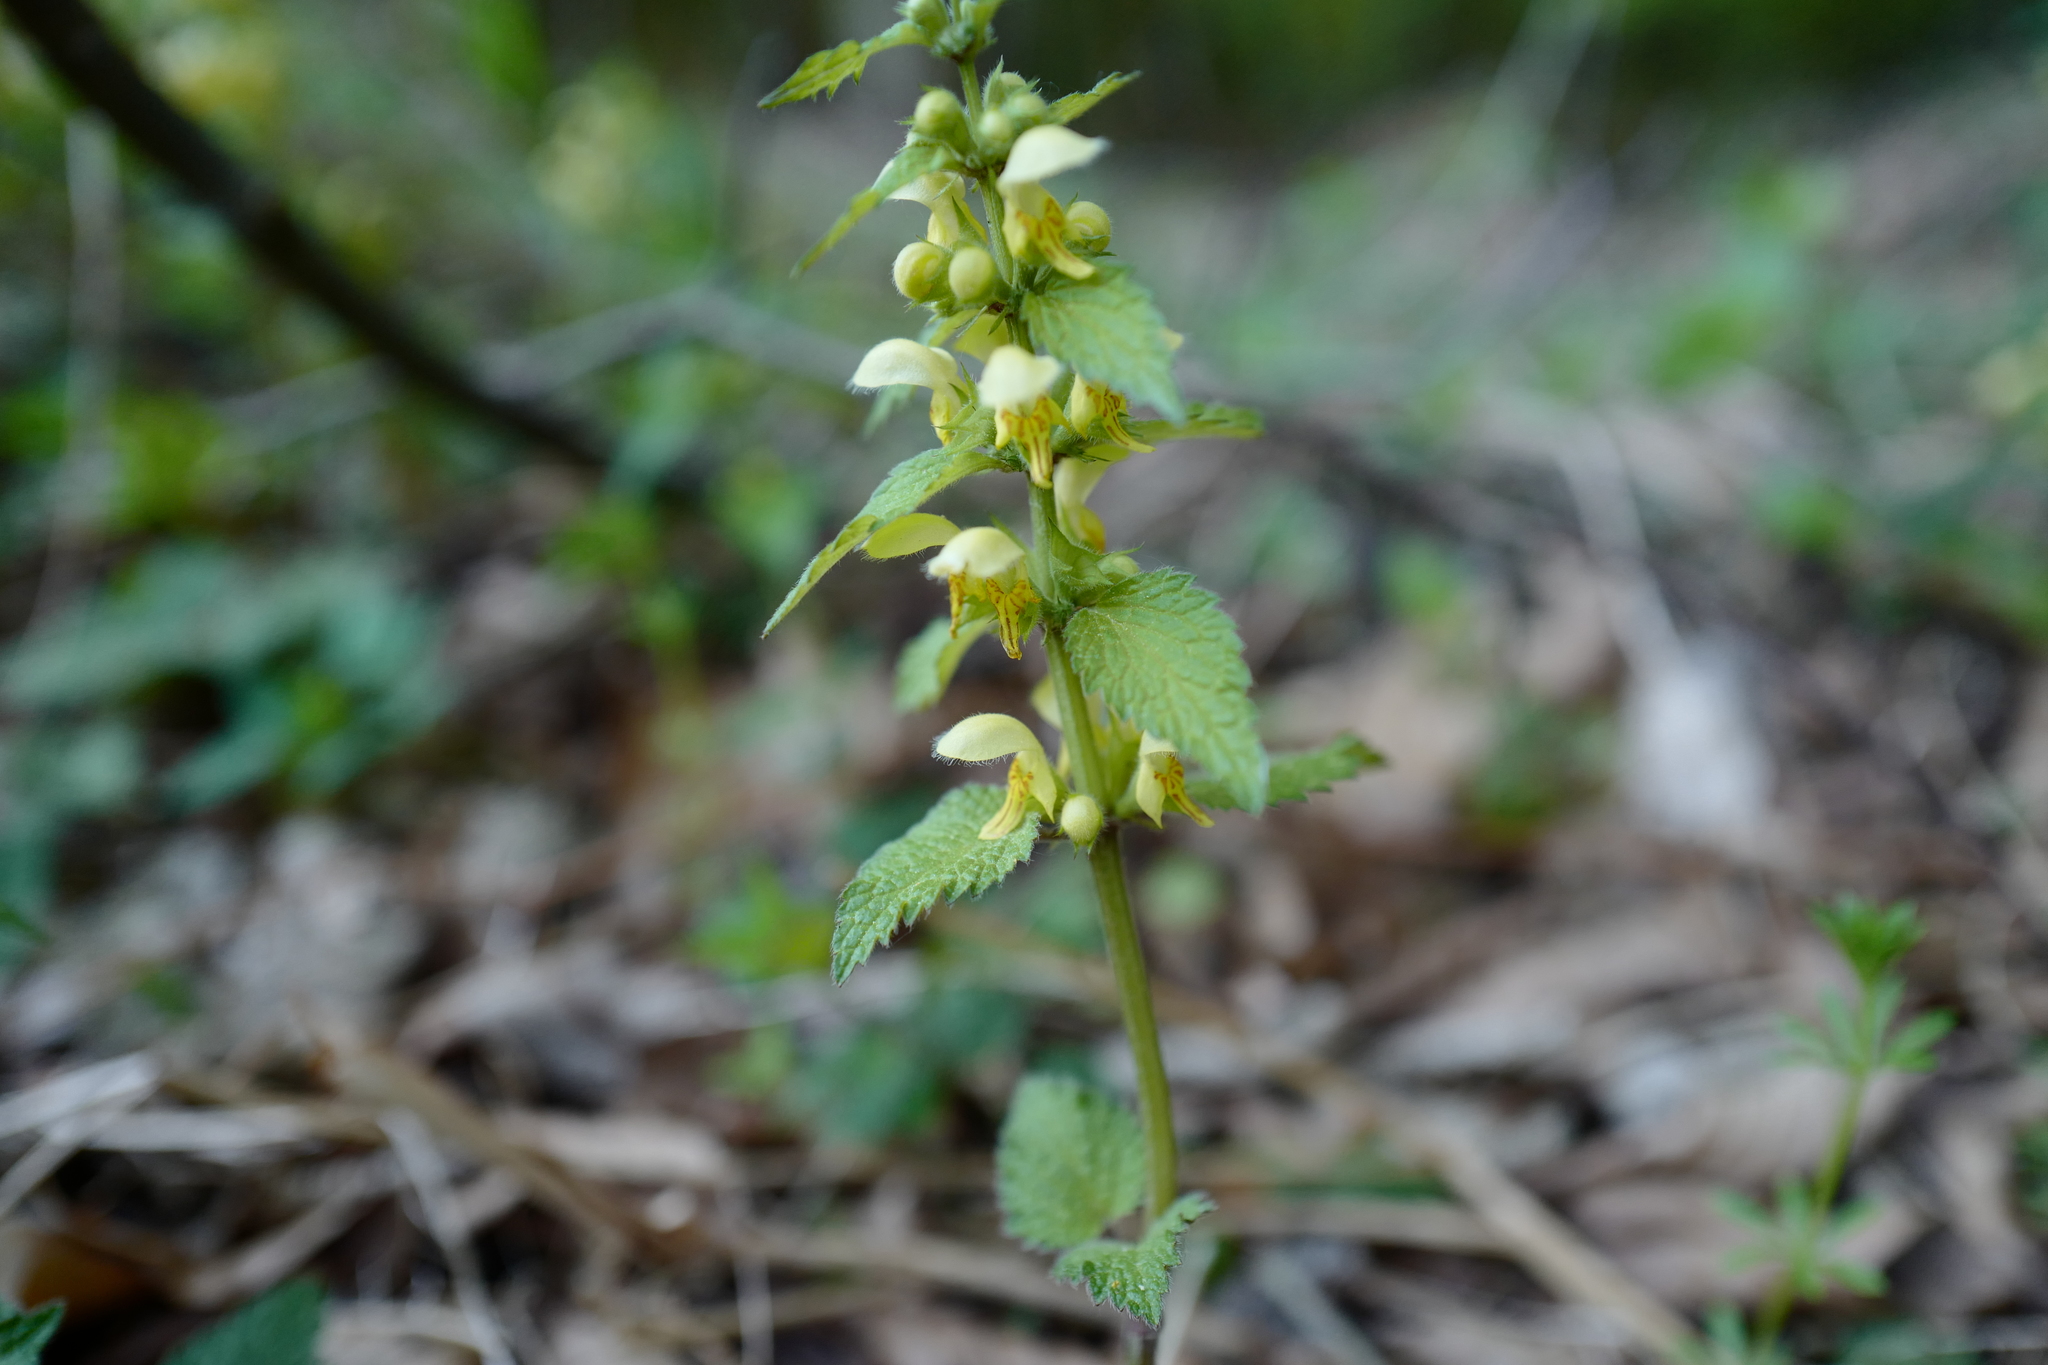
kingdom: Plantae
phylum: Tracheophyta
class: Magnoliopsida
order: Lamiales
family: Lamiaceae
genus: Lamium
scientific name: Lamium galeobdolon
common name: Yellow archangel
